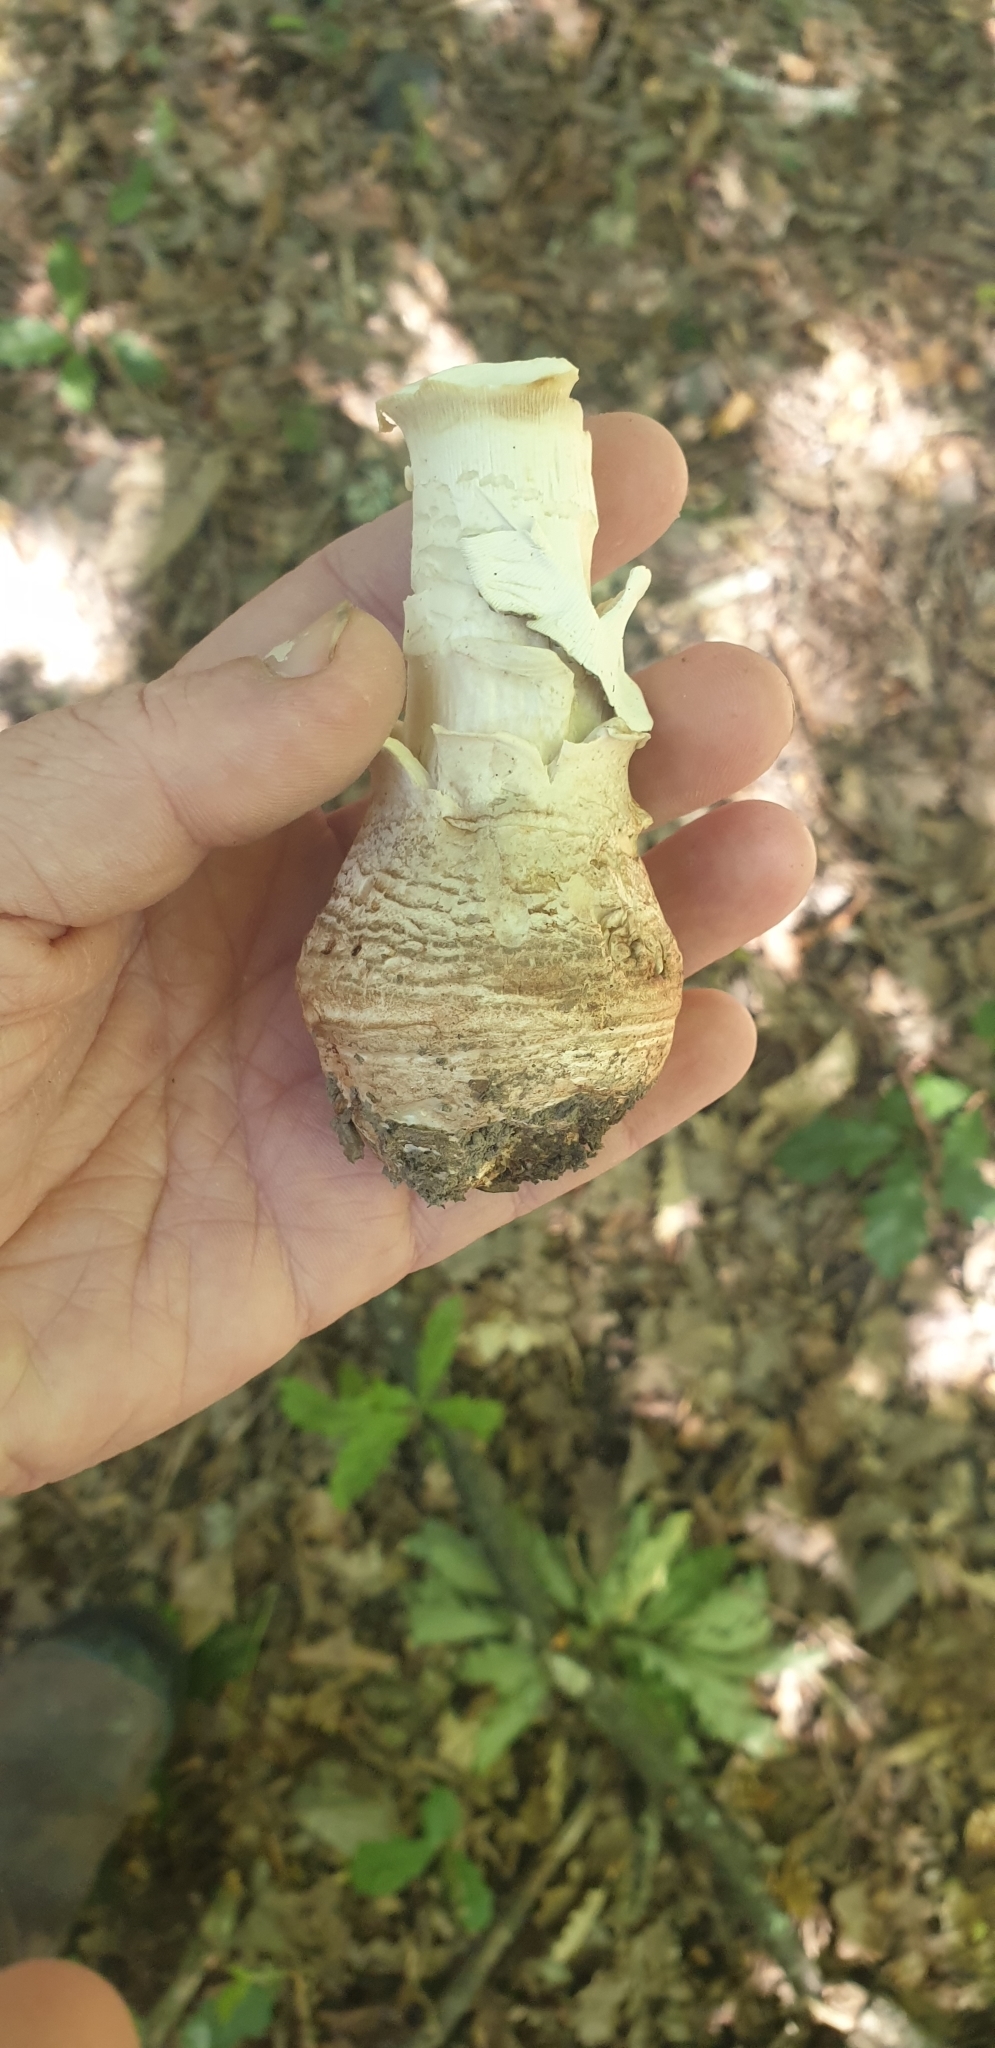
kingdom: Fungi
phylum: Basidiomycota
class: Agaricomycetes
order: Agaricales
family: Amanitaceae
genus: Amanita
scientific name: Amanita excelsa
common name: European false blusher
